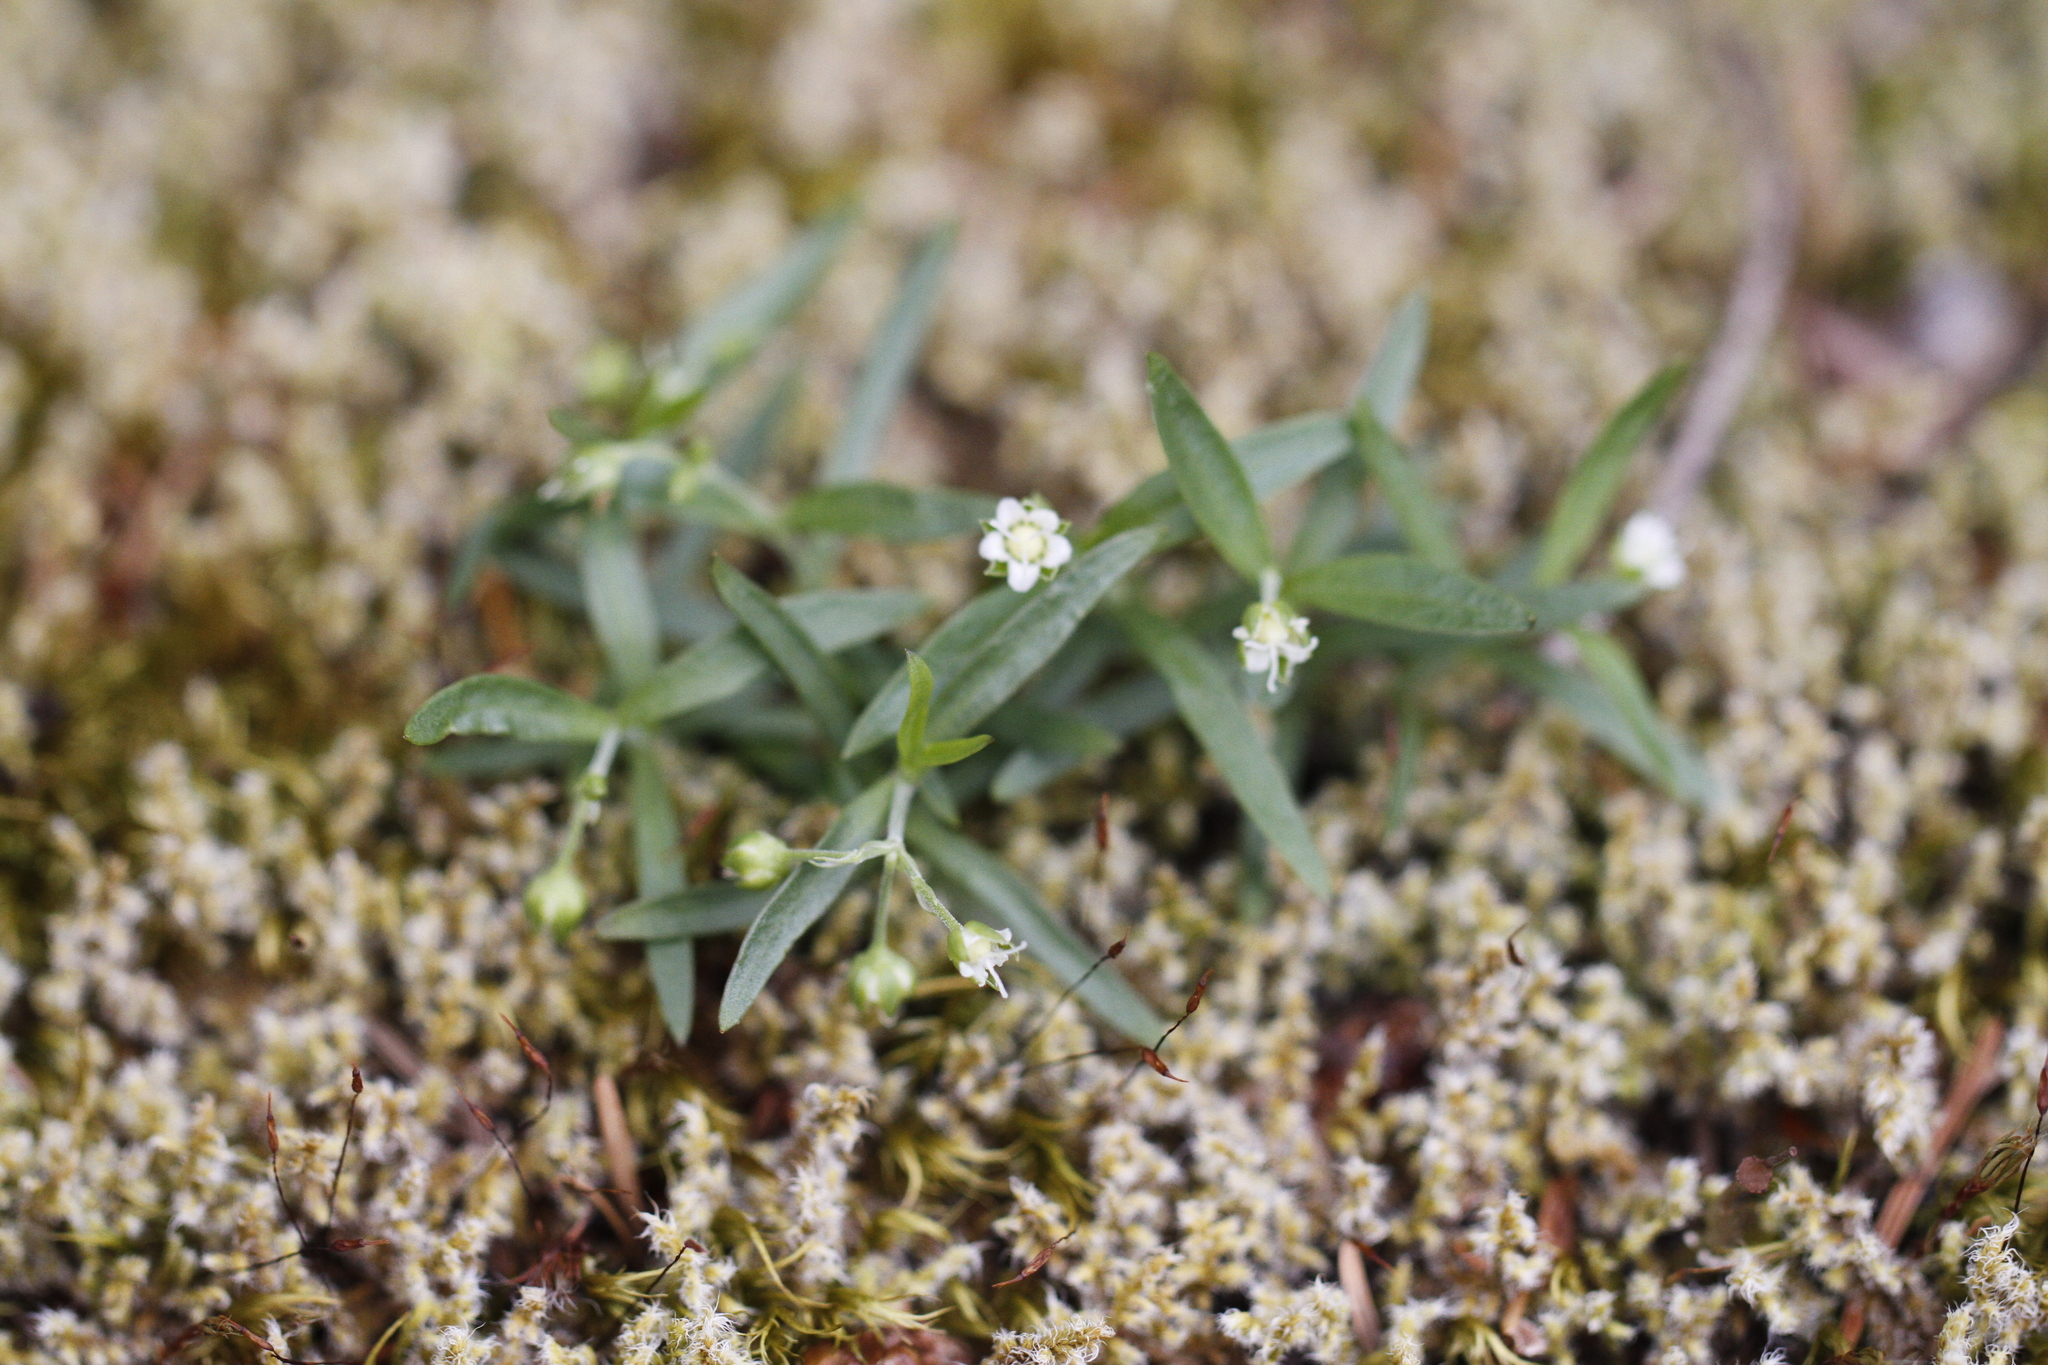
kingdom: Plantae
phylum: Tracheophyta
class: Magnoliopsida
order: Caryophyllales
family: Caryophyllaceae
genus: Moehringia
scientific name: Moehringia macrophylla
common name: Big-leaf sandwort
